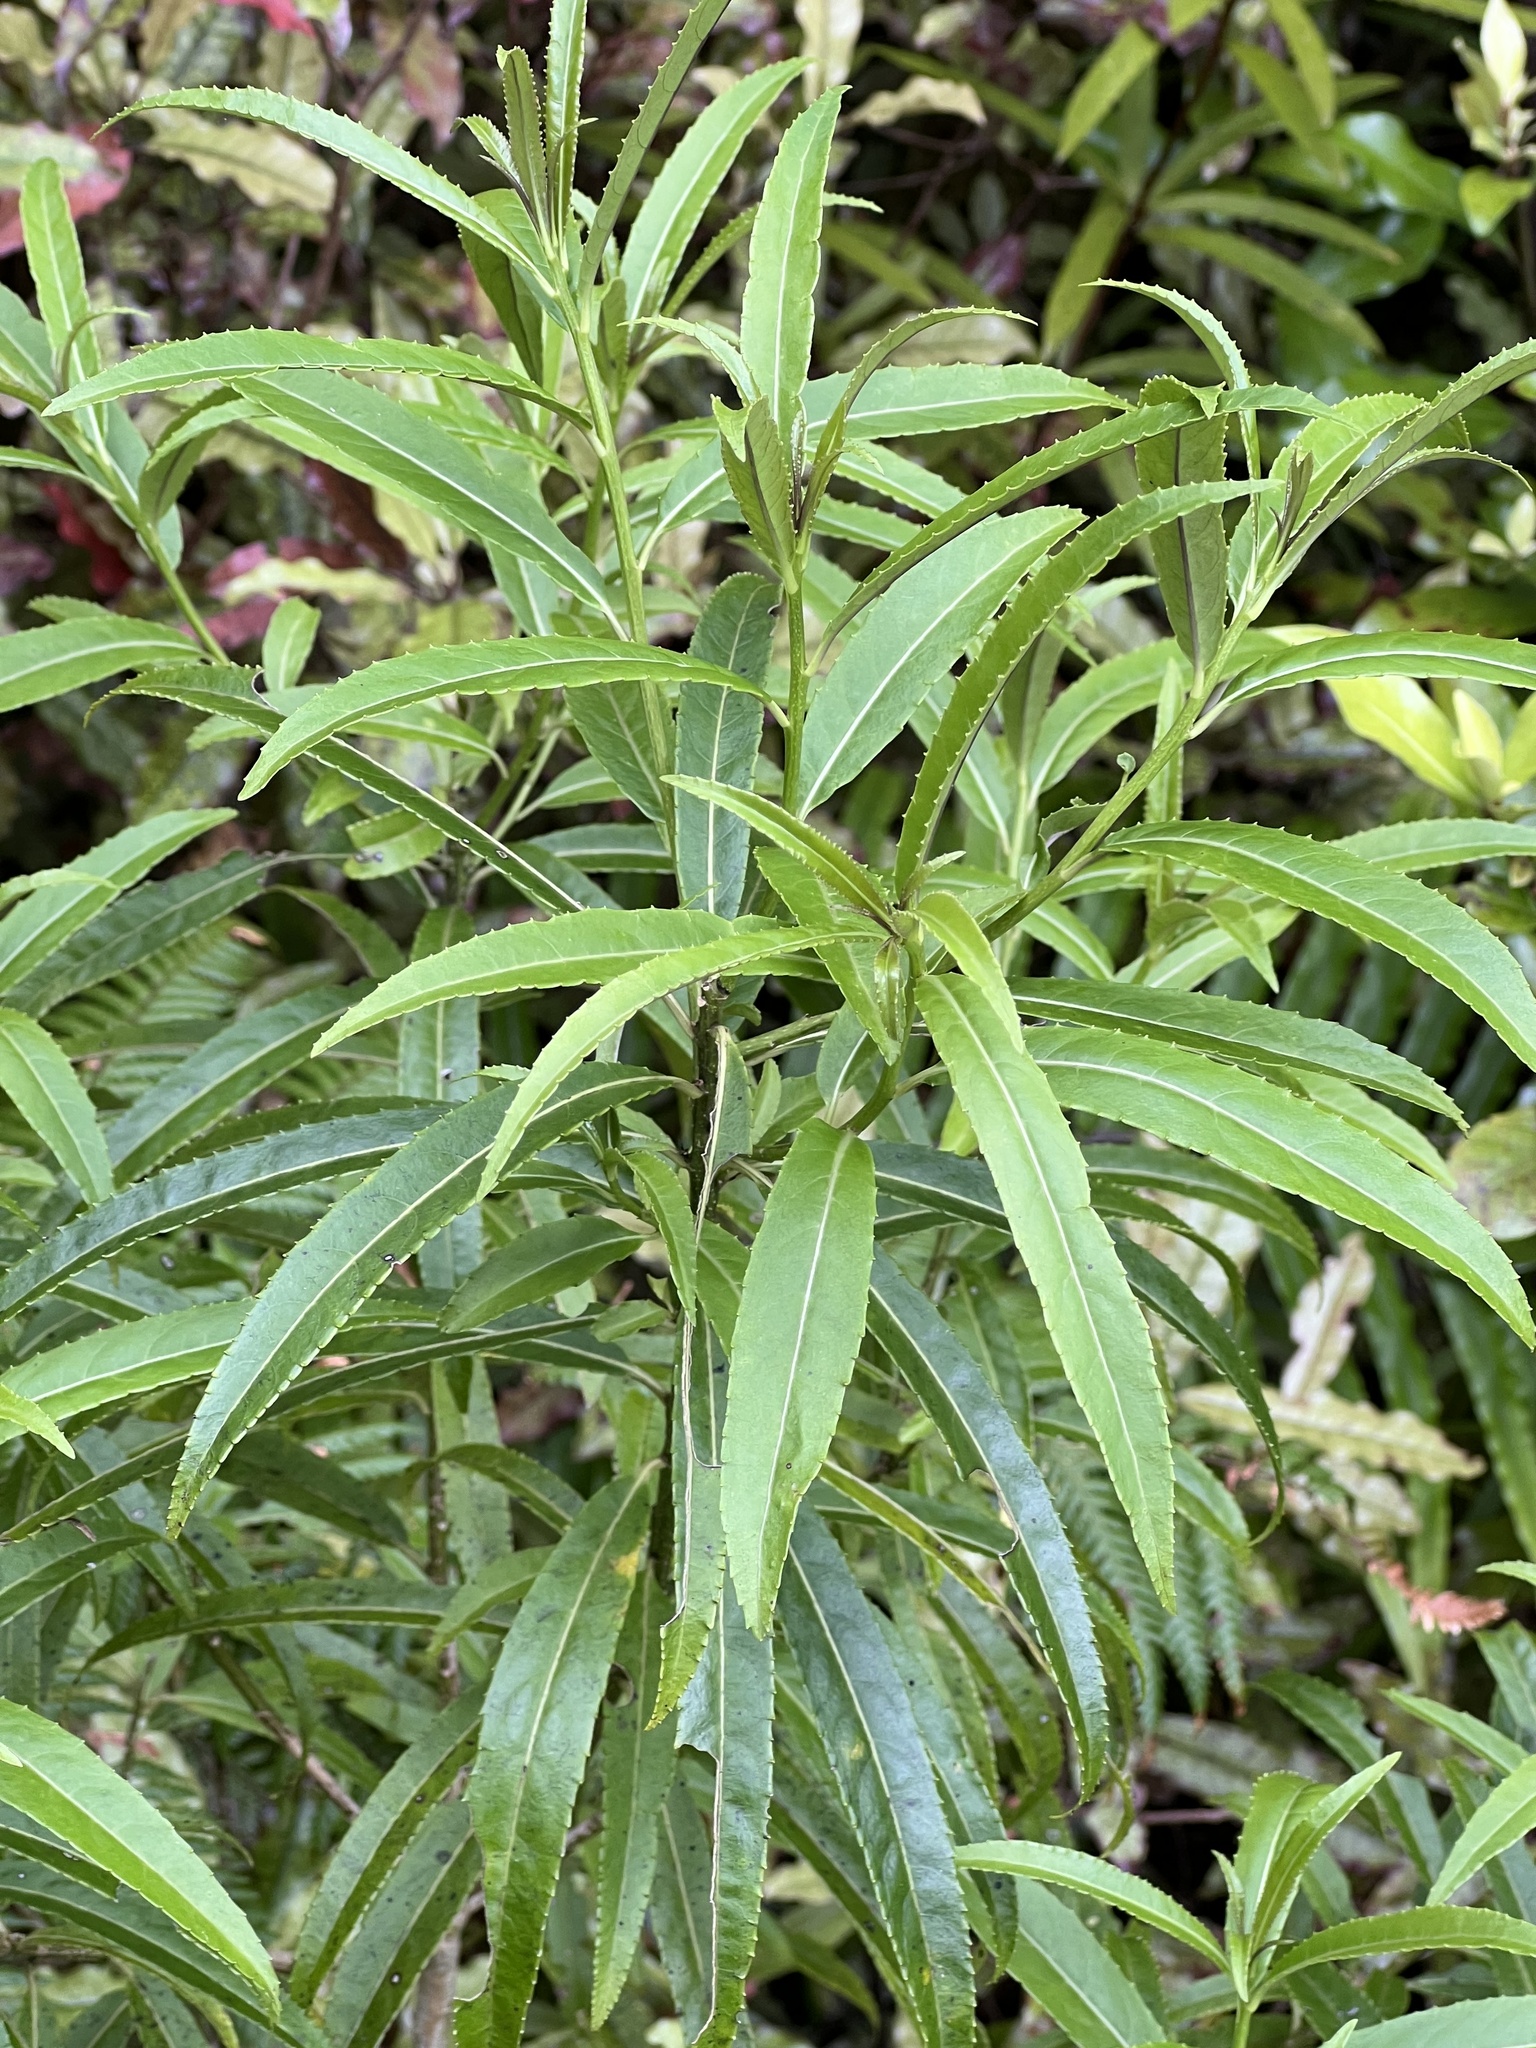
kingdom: Plantae
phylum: Tracheophyta
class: Magnoliopsida
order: Malpighiales
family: Violaceae
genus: Melicytus
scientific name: Melicytus lanceolatus
